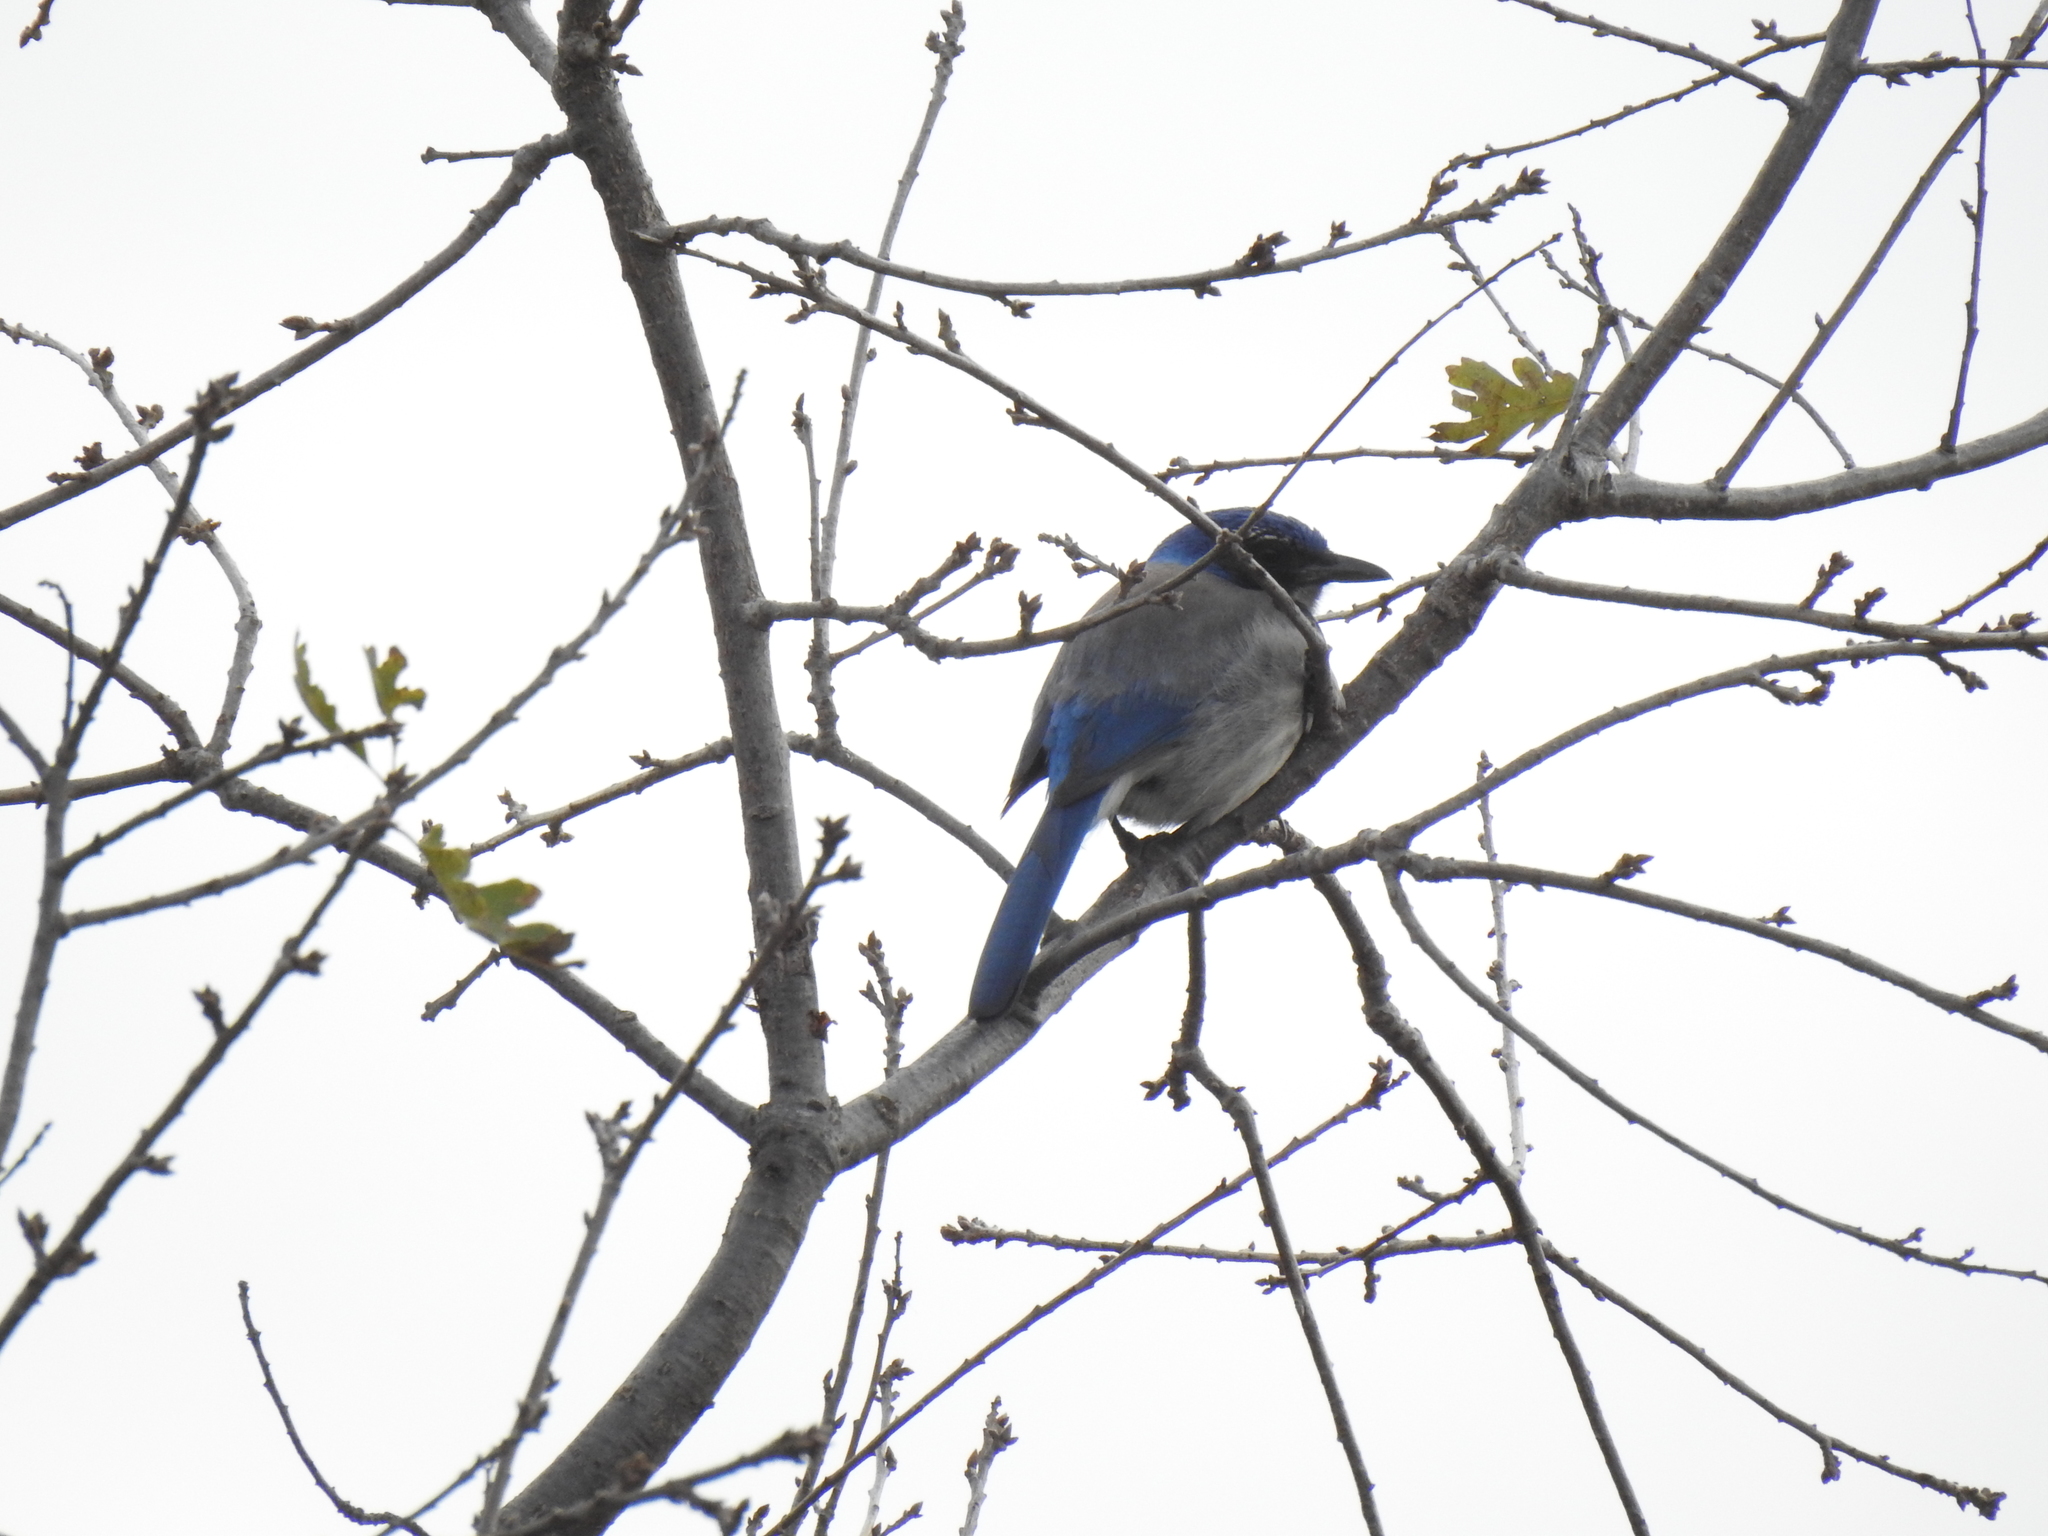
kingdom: Animalia
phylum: Chordata
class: Aves
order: Passeriformes
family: Corvidae
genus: Aphelocoma
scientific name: Aphelocoma californica
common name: California scrub-jay
